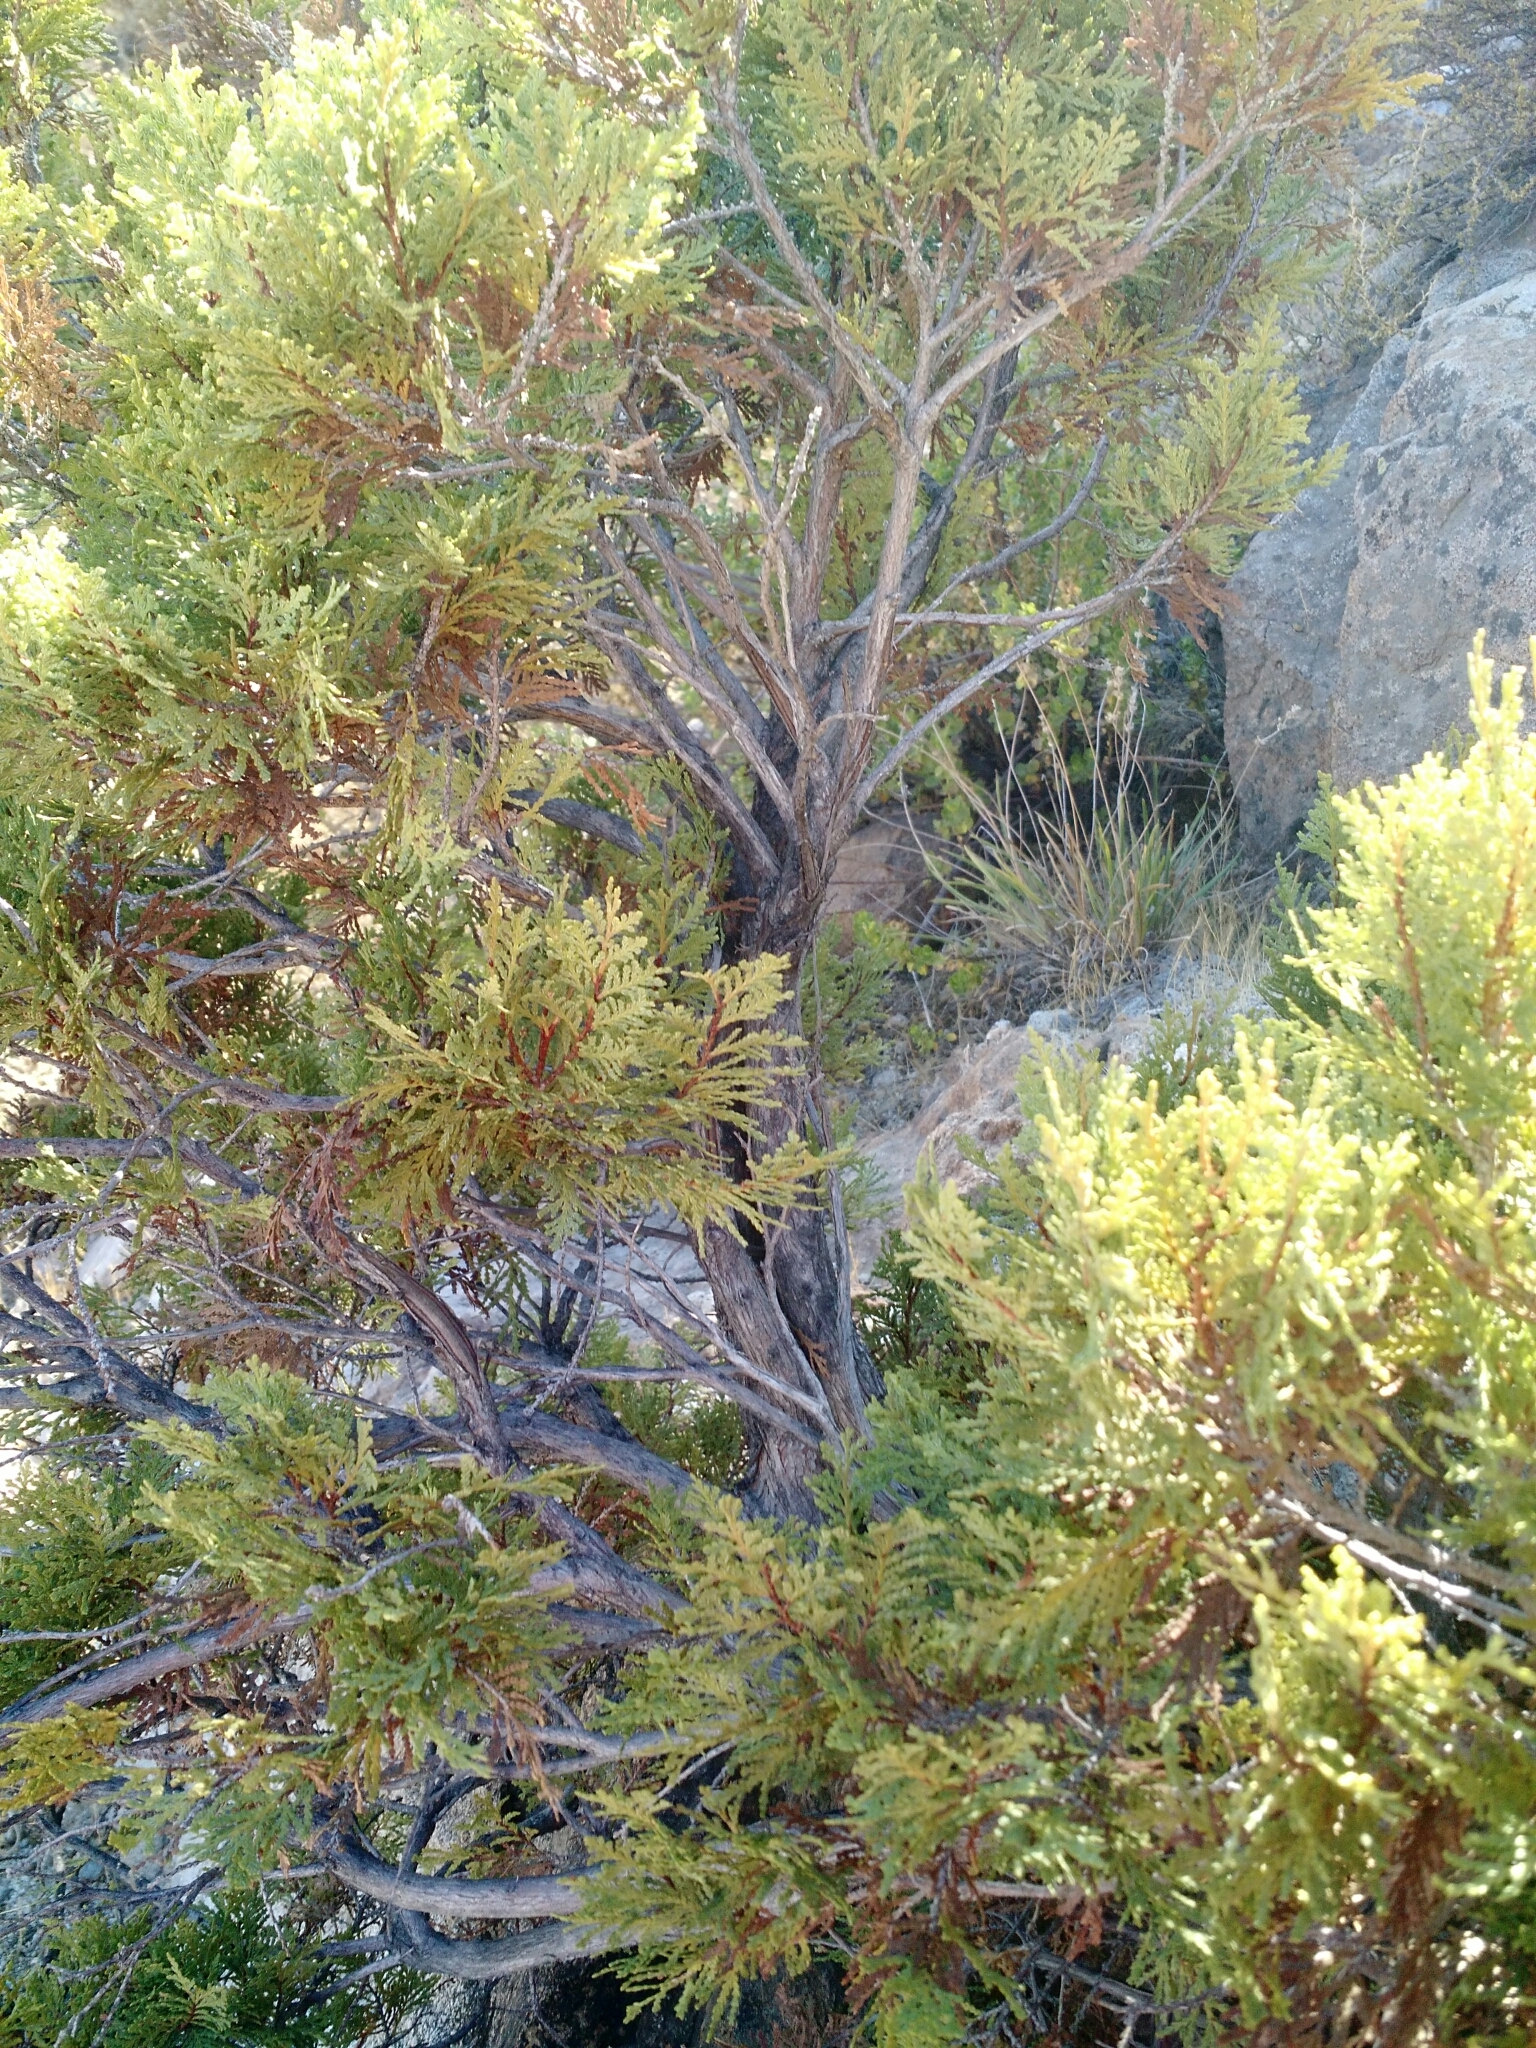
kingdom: Plantae
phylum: Tracheophyta
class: Pinopsida
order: Pinales
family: Cupressaceae
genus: Austrocedrus
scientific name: Austrocedrus chilensis
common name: Chilean incense-cedar
